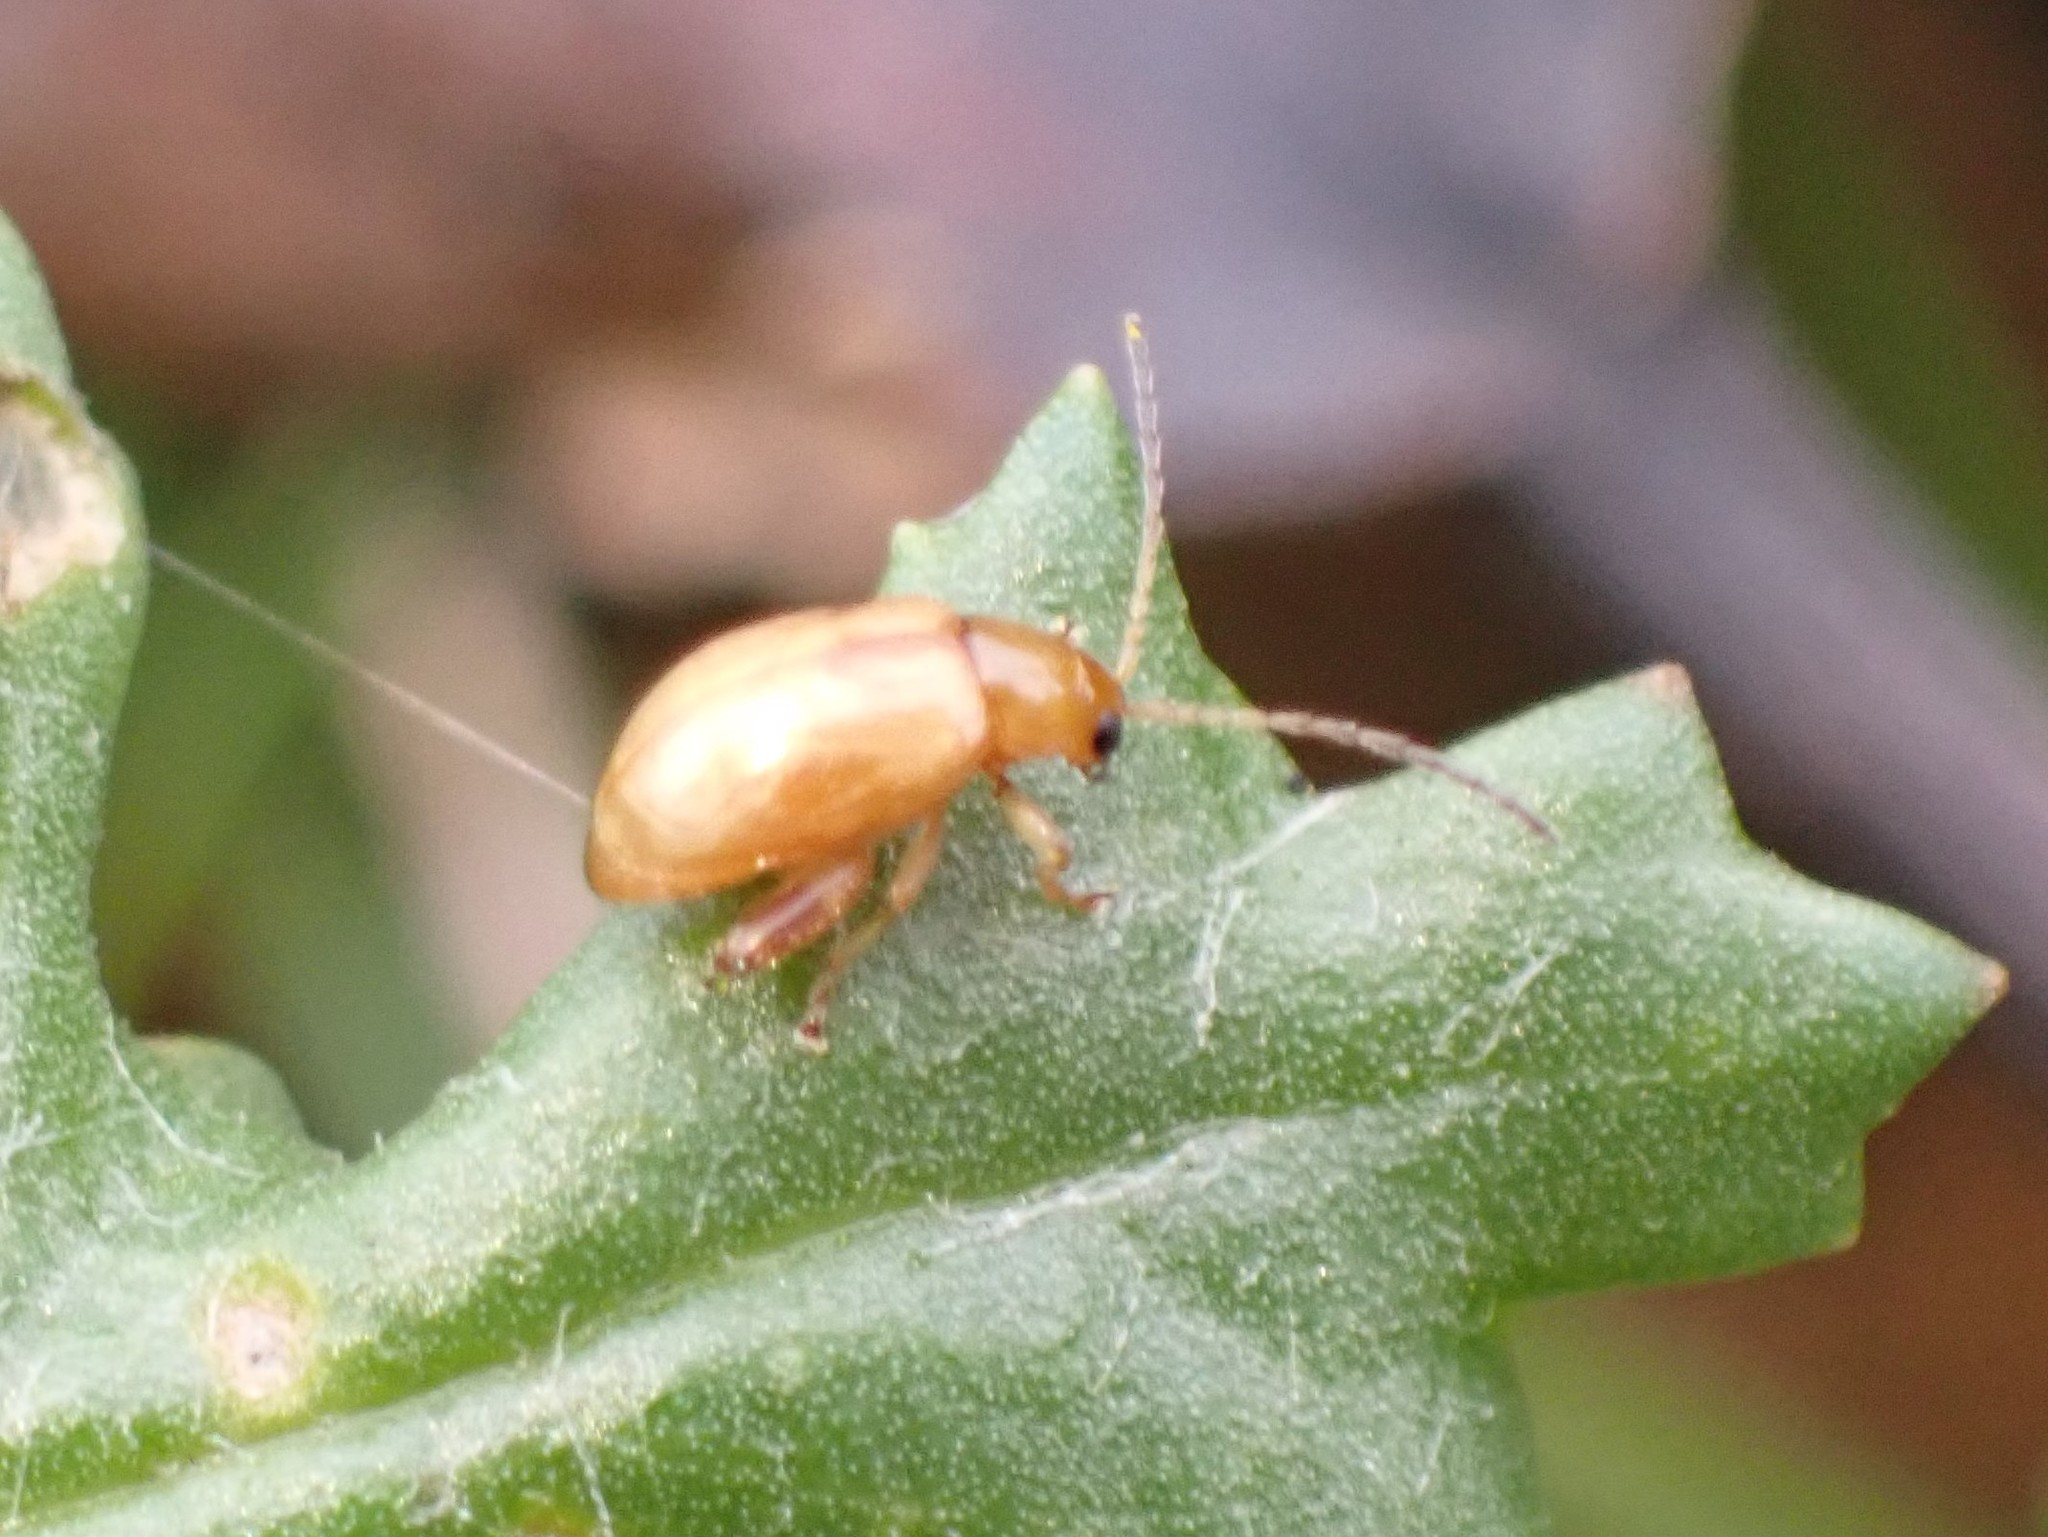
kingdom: Animalia
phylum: Arthropoda
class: Insecta
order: Coleoptera
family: Chrysomelidae
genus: Longitarsus
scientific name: Longitarsus jacobaeae
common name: Tansy ragwort flea beetle
